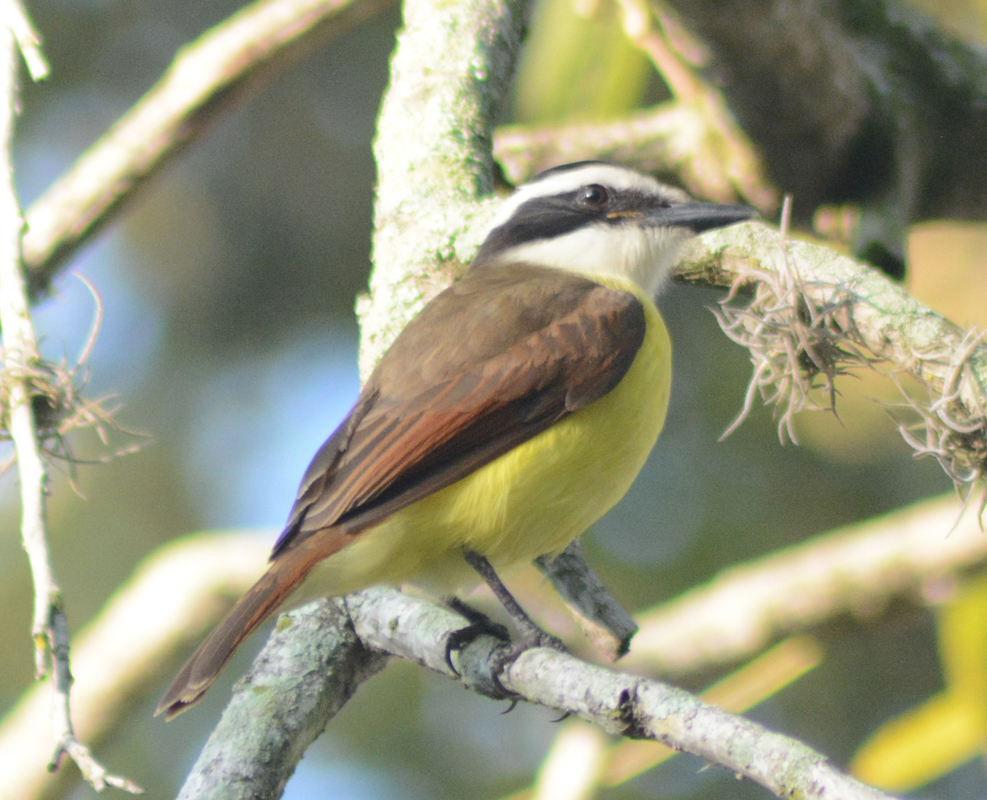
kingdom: Animalia
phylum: Chordata
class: Aves
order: Passeriformes
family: Tyrannidae
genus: Pitangus
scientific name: Pitangus sulphuratus
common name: Great kiskadee
